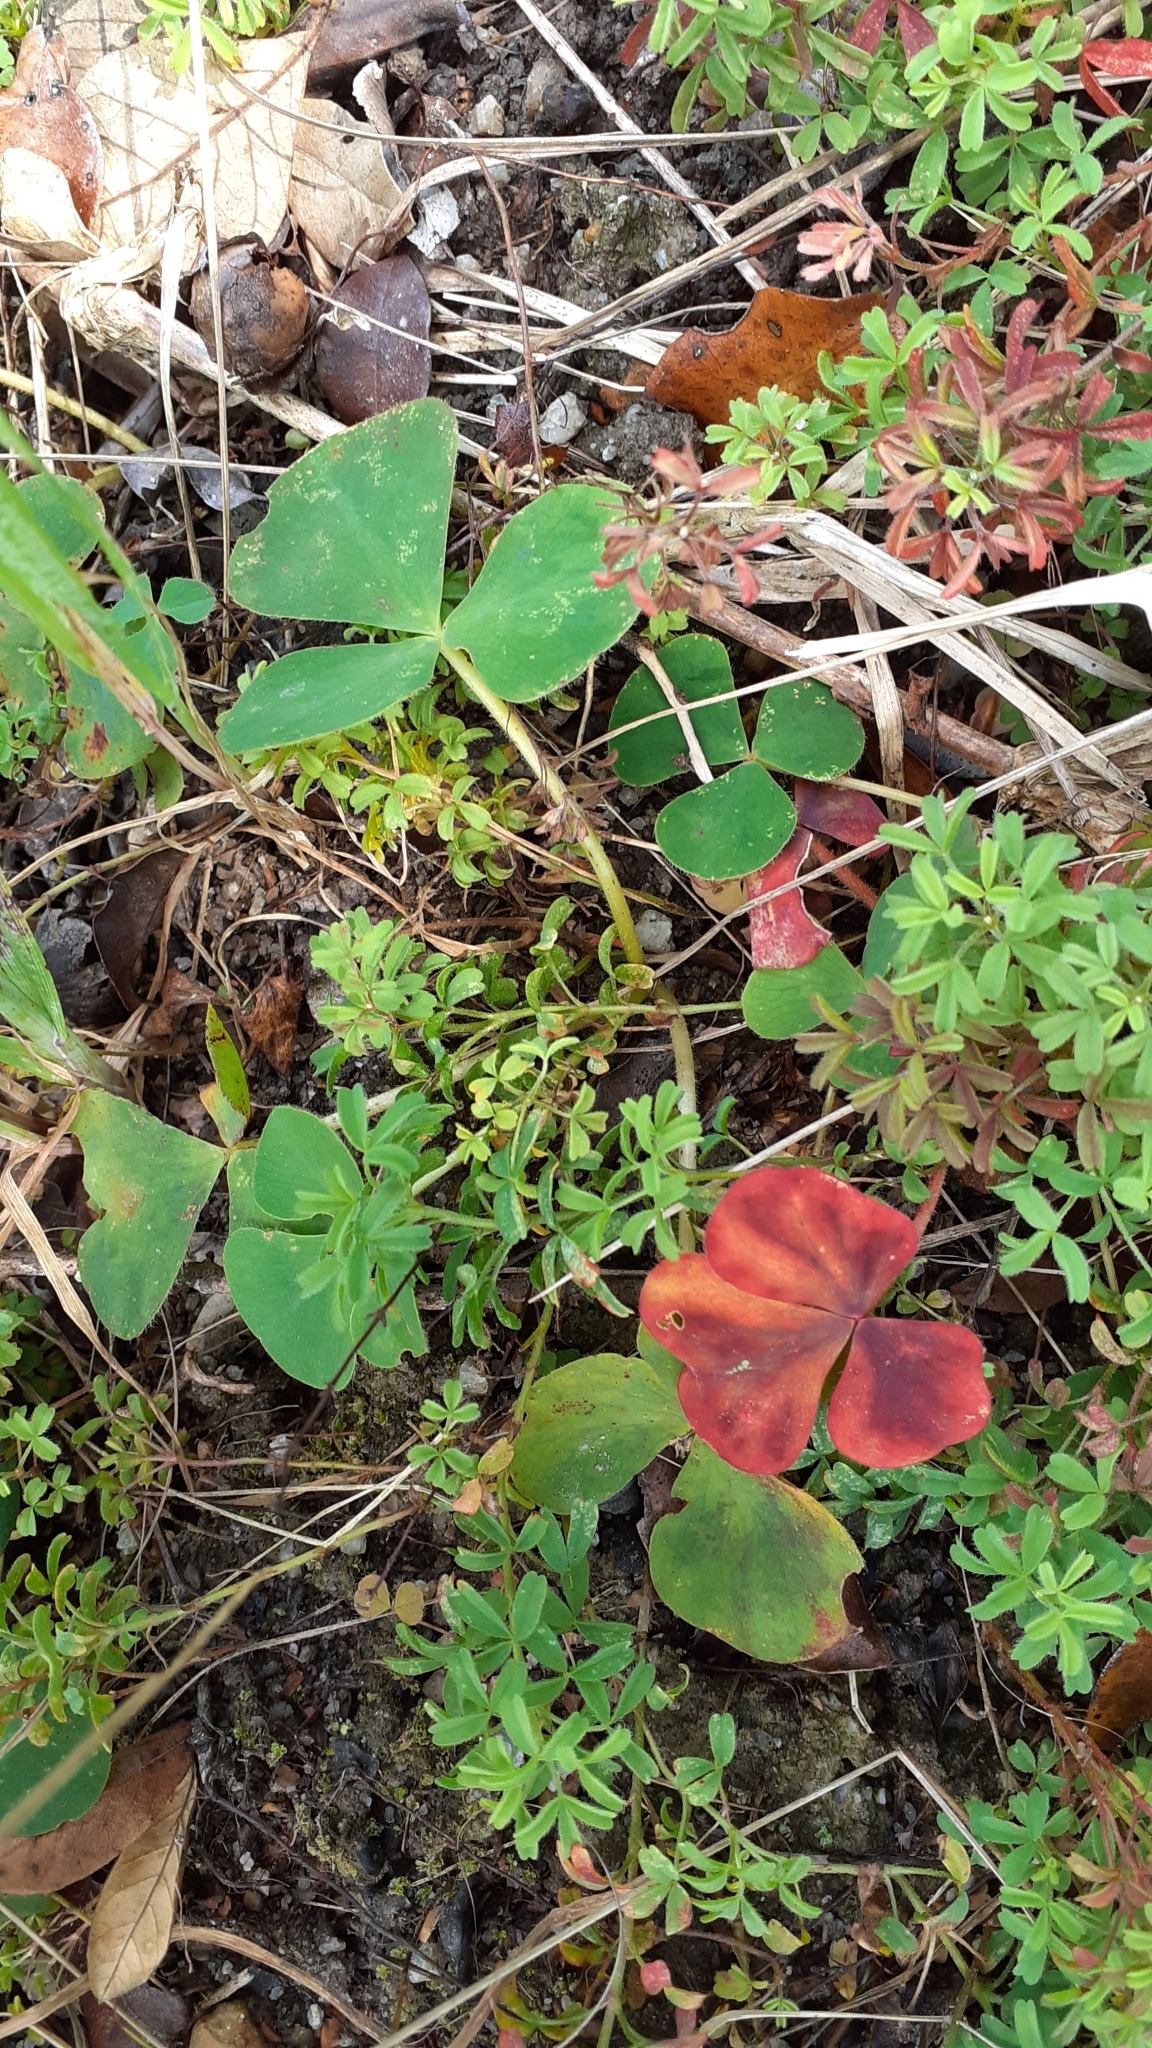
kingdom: Plantae
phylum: Tracheophyta
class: Magnoliopsida
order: Oxalidales
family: Oxalidaceae
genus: Oxalis
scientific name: Oxalis purpurea
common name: Purple woodsorrel
